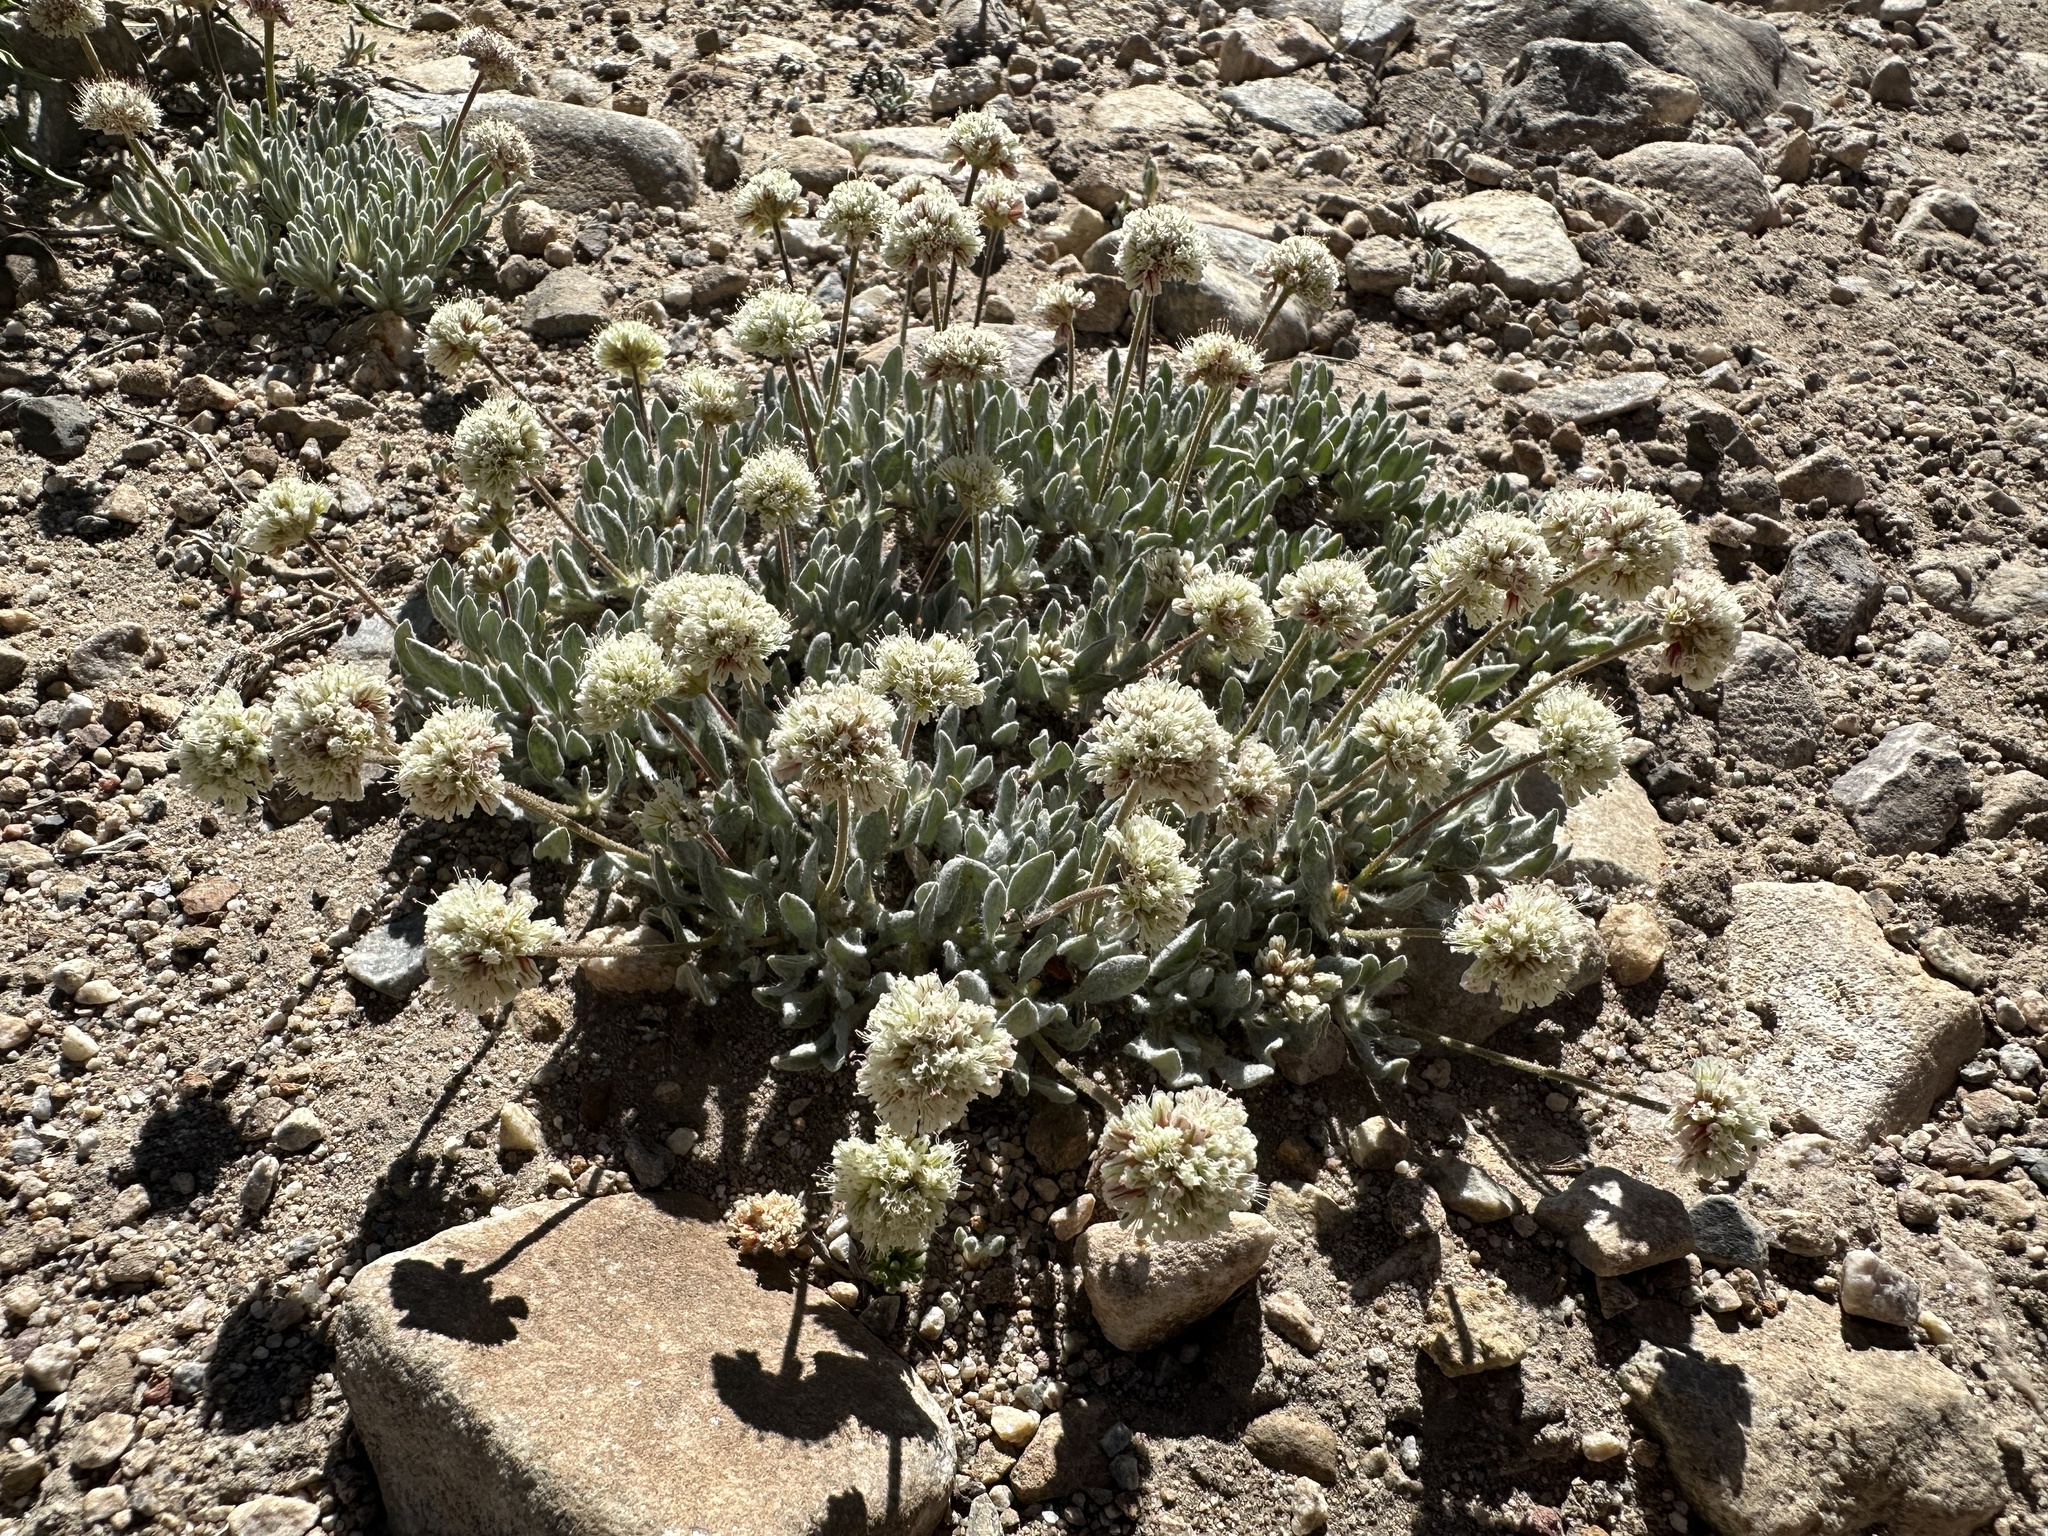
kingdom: Plantae
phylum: Tracheophyta
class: Magnoliopsida
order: Caryophyllales
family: Polygonaceae
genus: Eriogonum
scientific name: Eriogonum gracilipes
